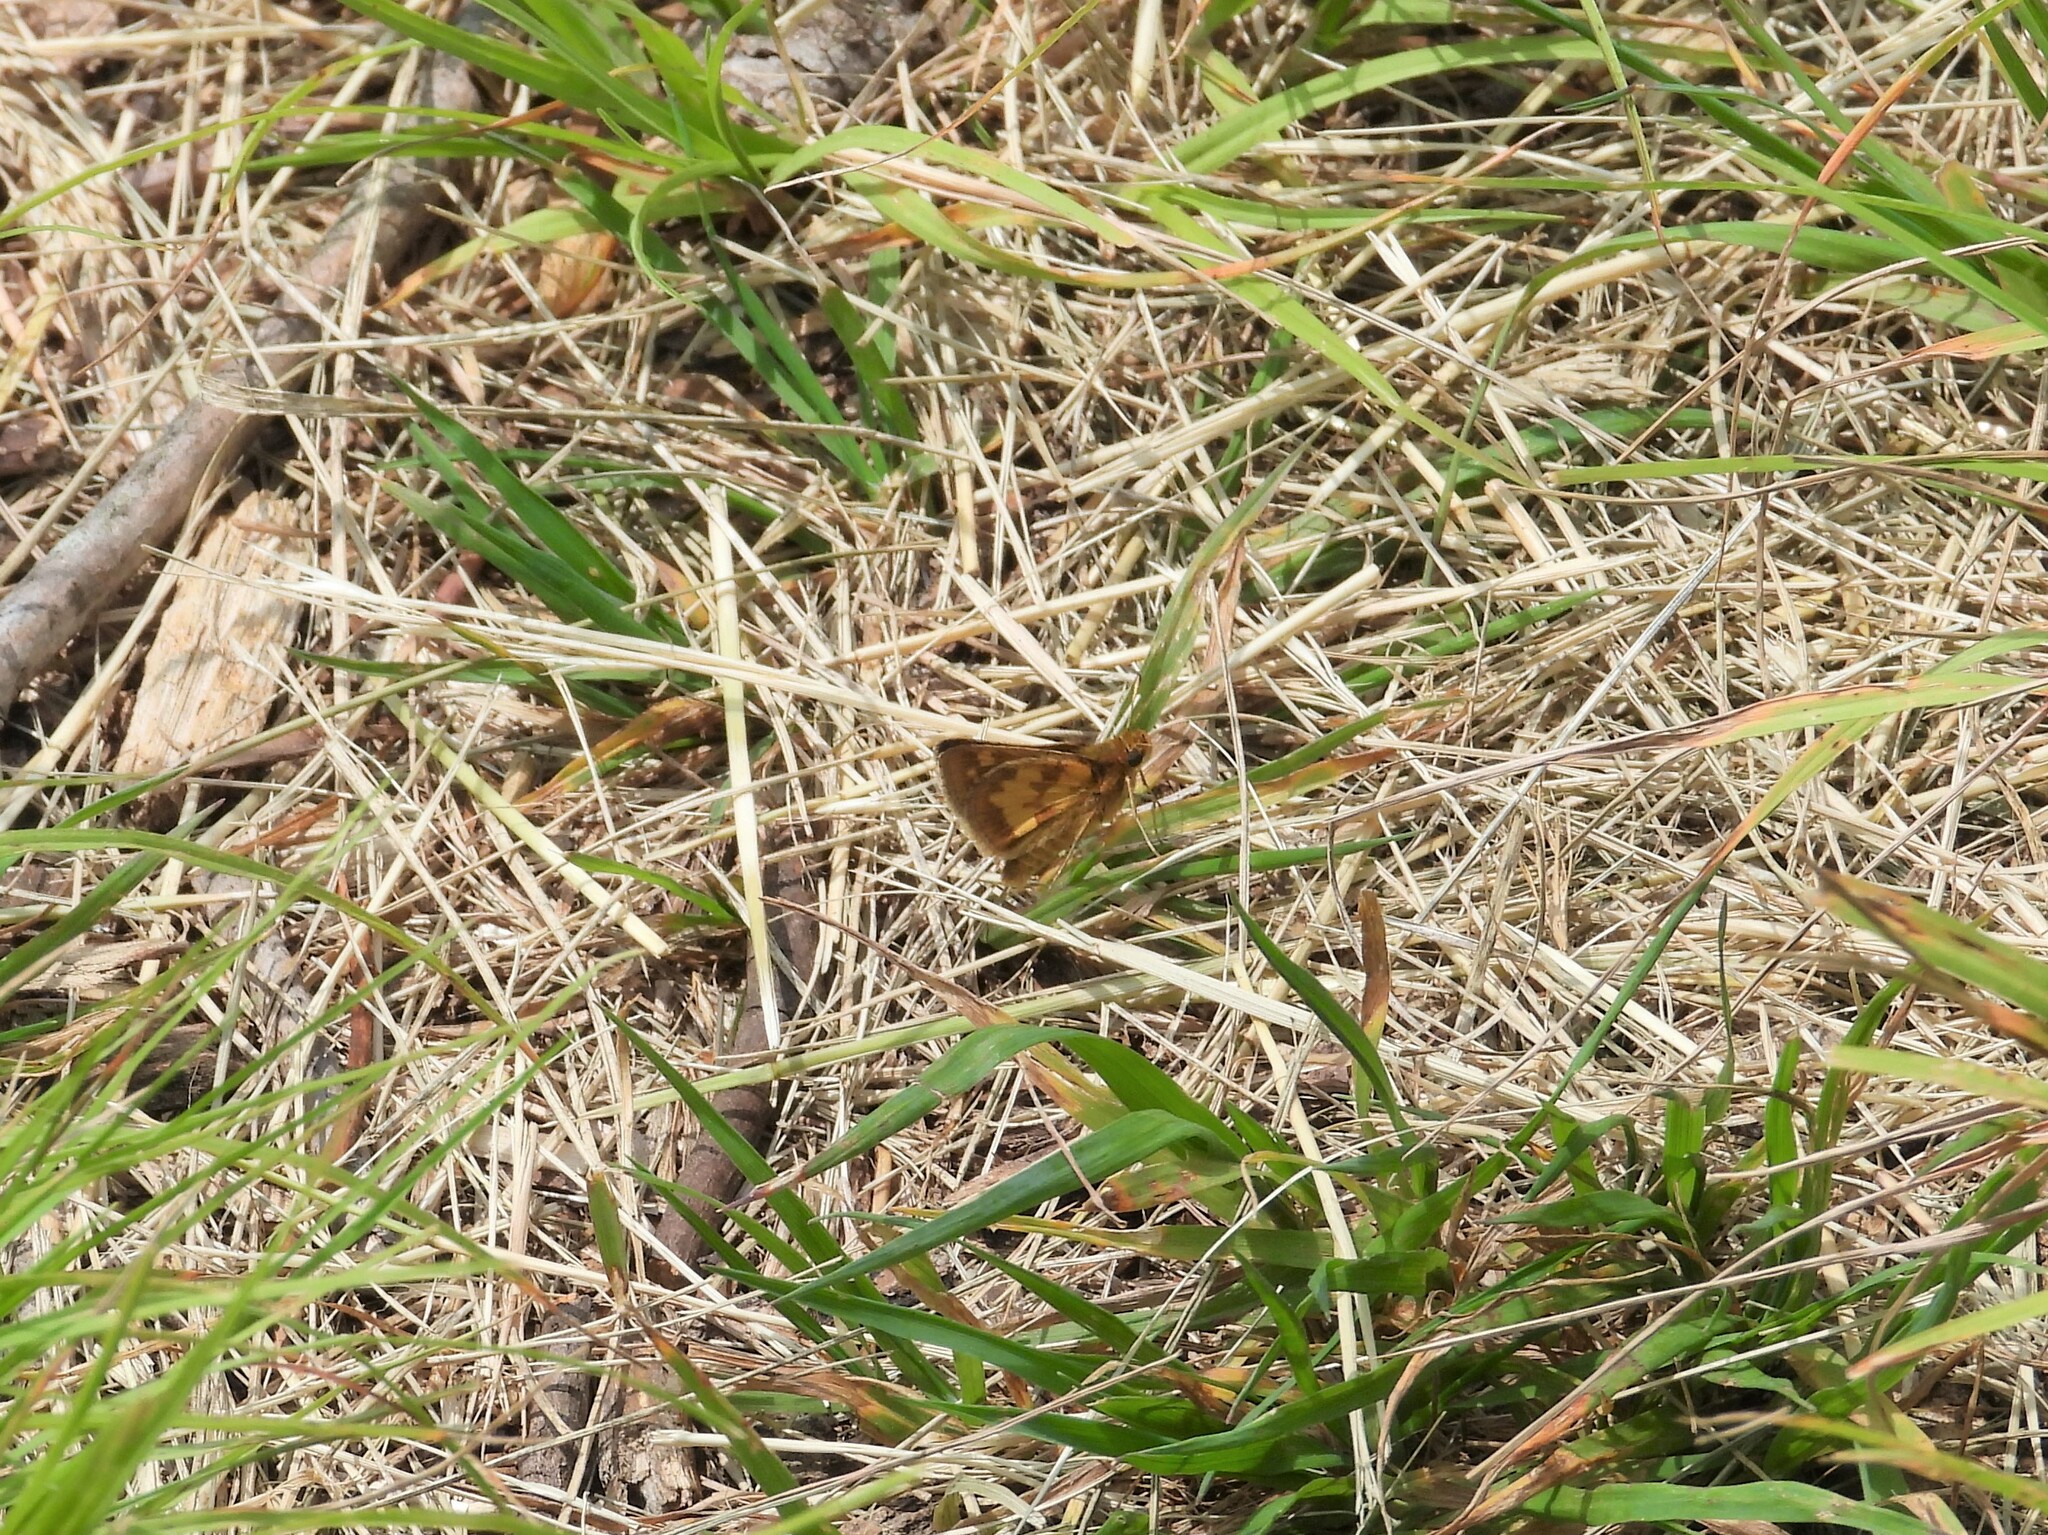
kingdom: Animalia
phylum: Arthropoda
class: Insecta
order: Lepidoptera
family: Hesperiidae
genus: Polites
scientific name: Polites coras
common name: Peck's skipper
